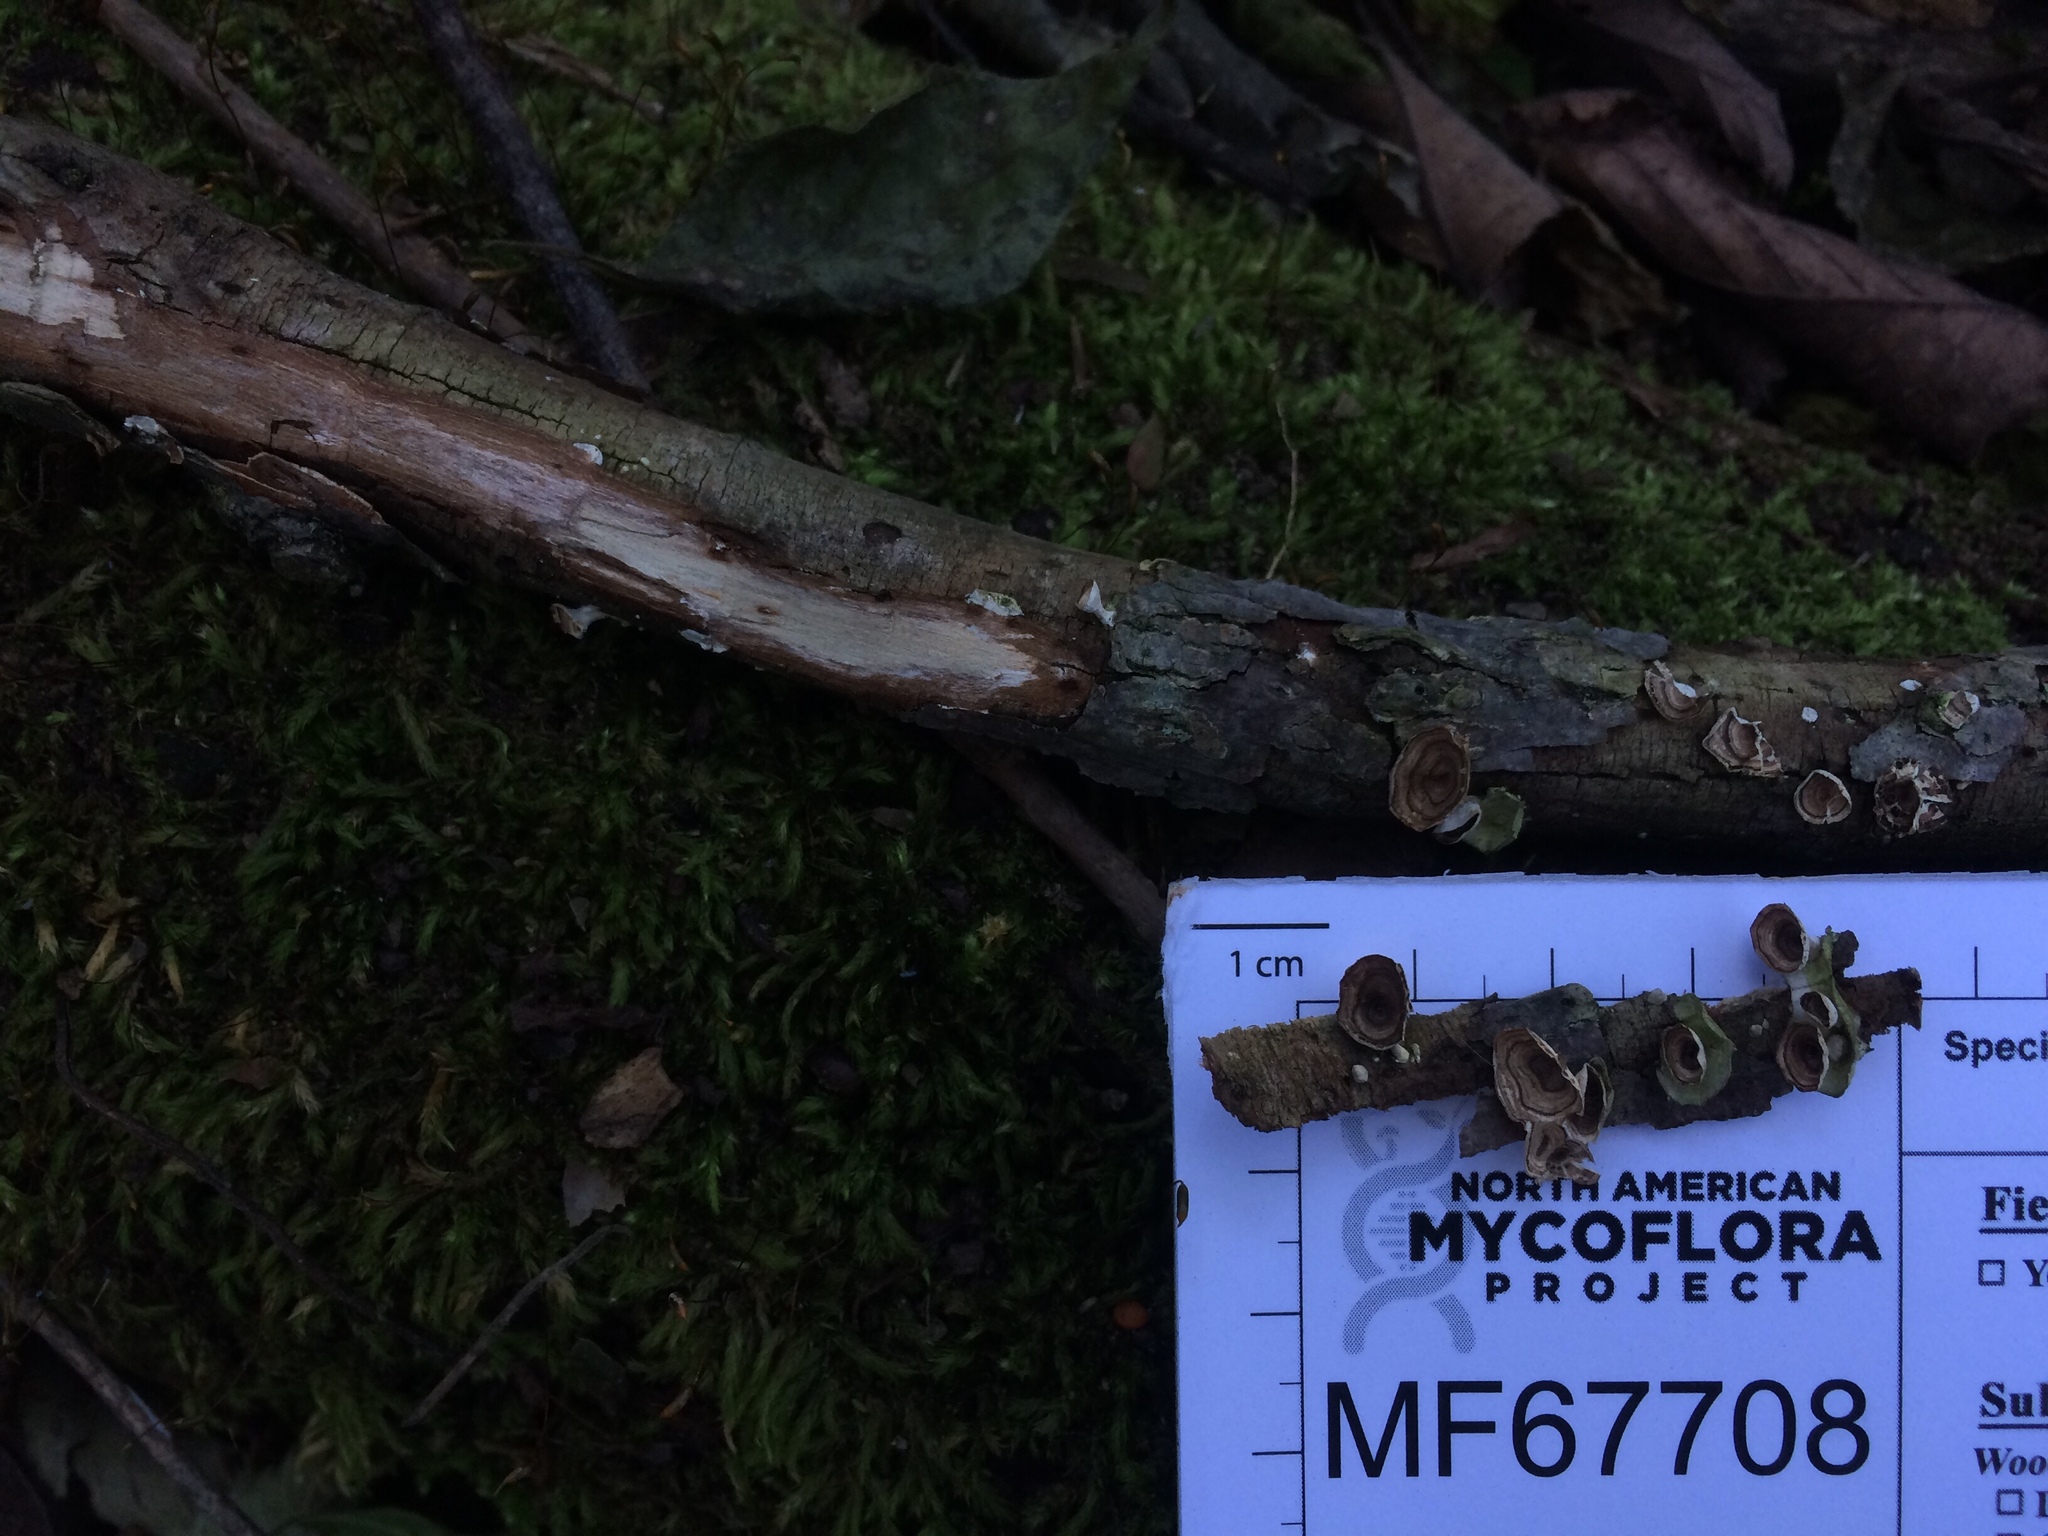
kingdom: Fungi
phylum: Basidiomycota
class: Agaricomycetes
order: Polyporales
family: Polyporaceae
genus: Poronidulus
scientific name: Poronidulus conchifer
